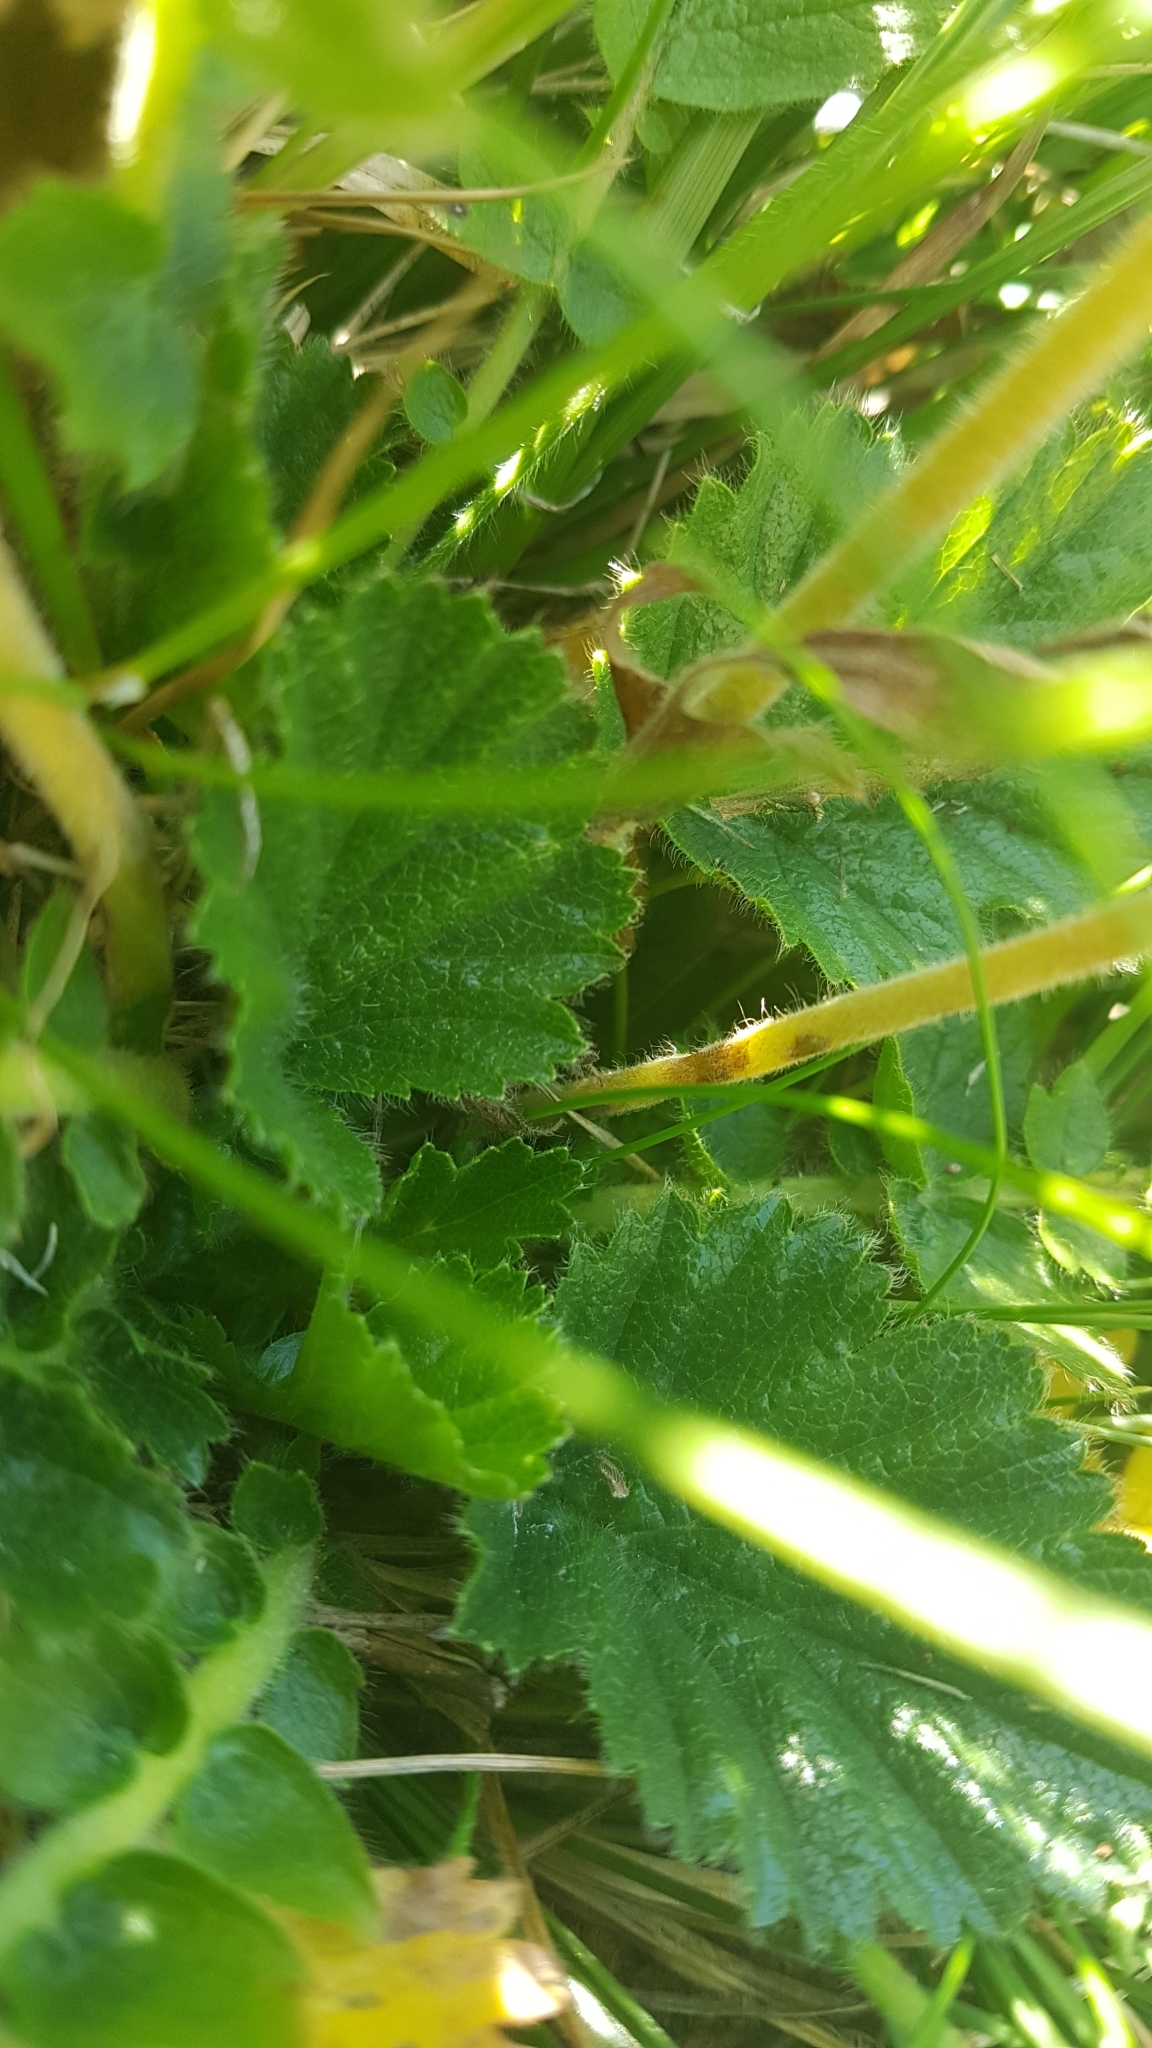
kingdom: Plantae
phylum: Tracheophyta
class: Magnoliopsida
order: Rosales
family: Rosaceae
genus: Geum
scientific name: Geum montanum
